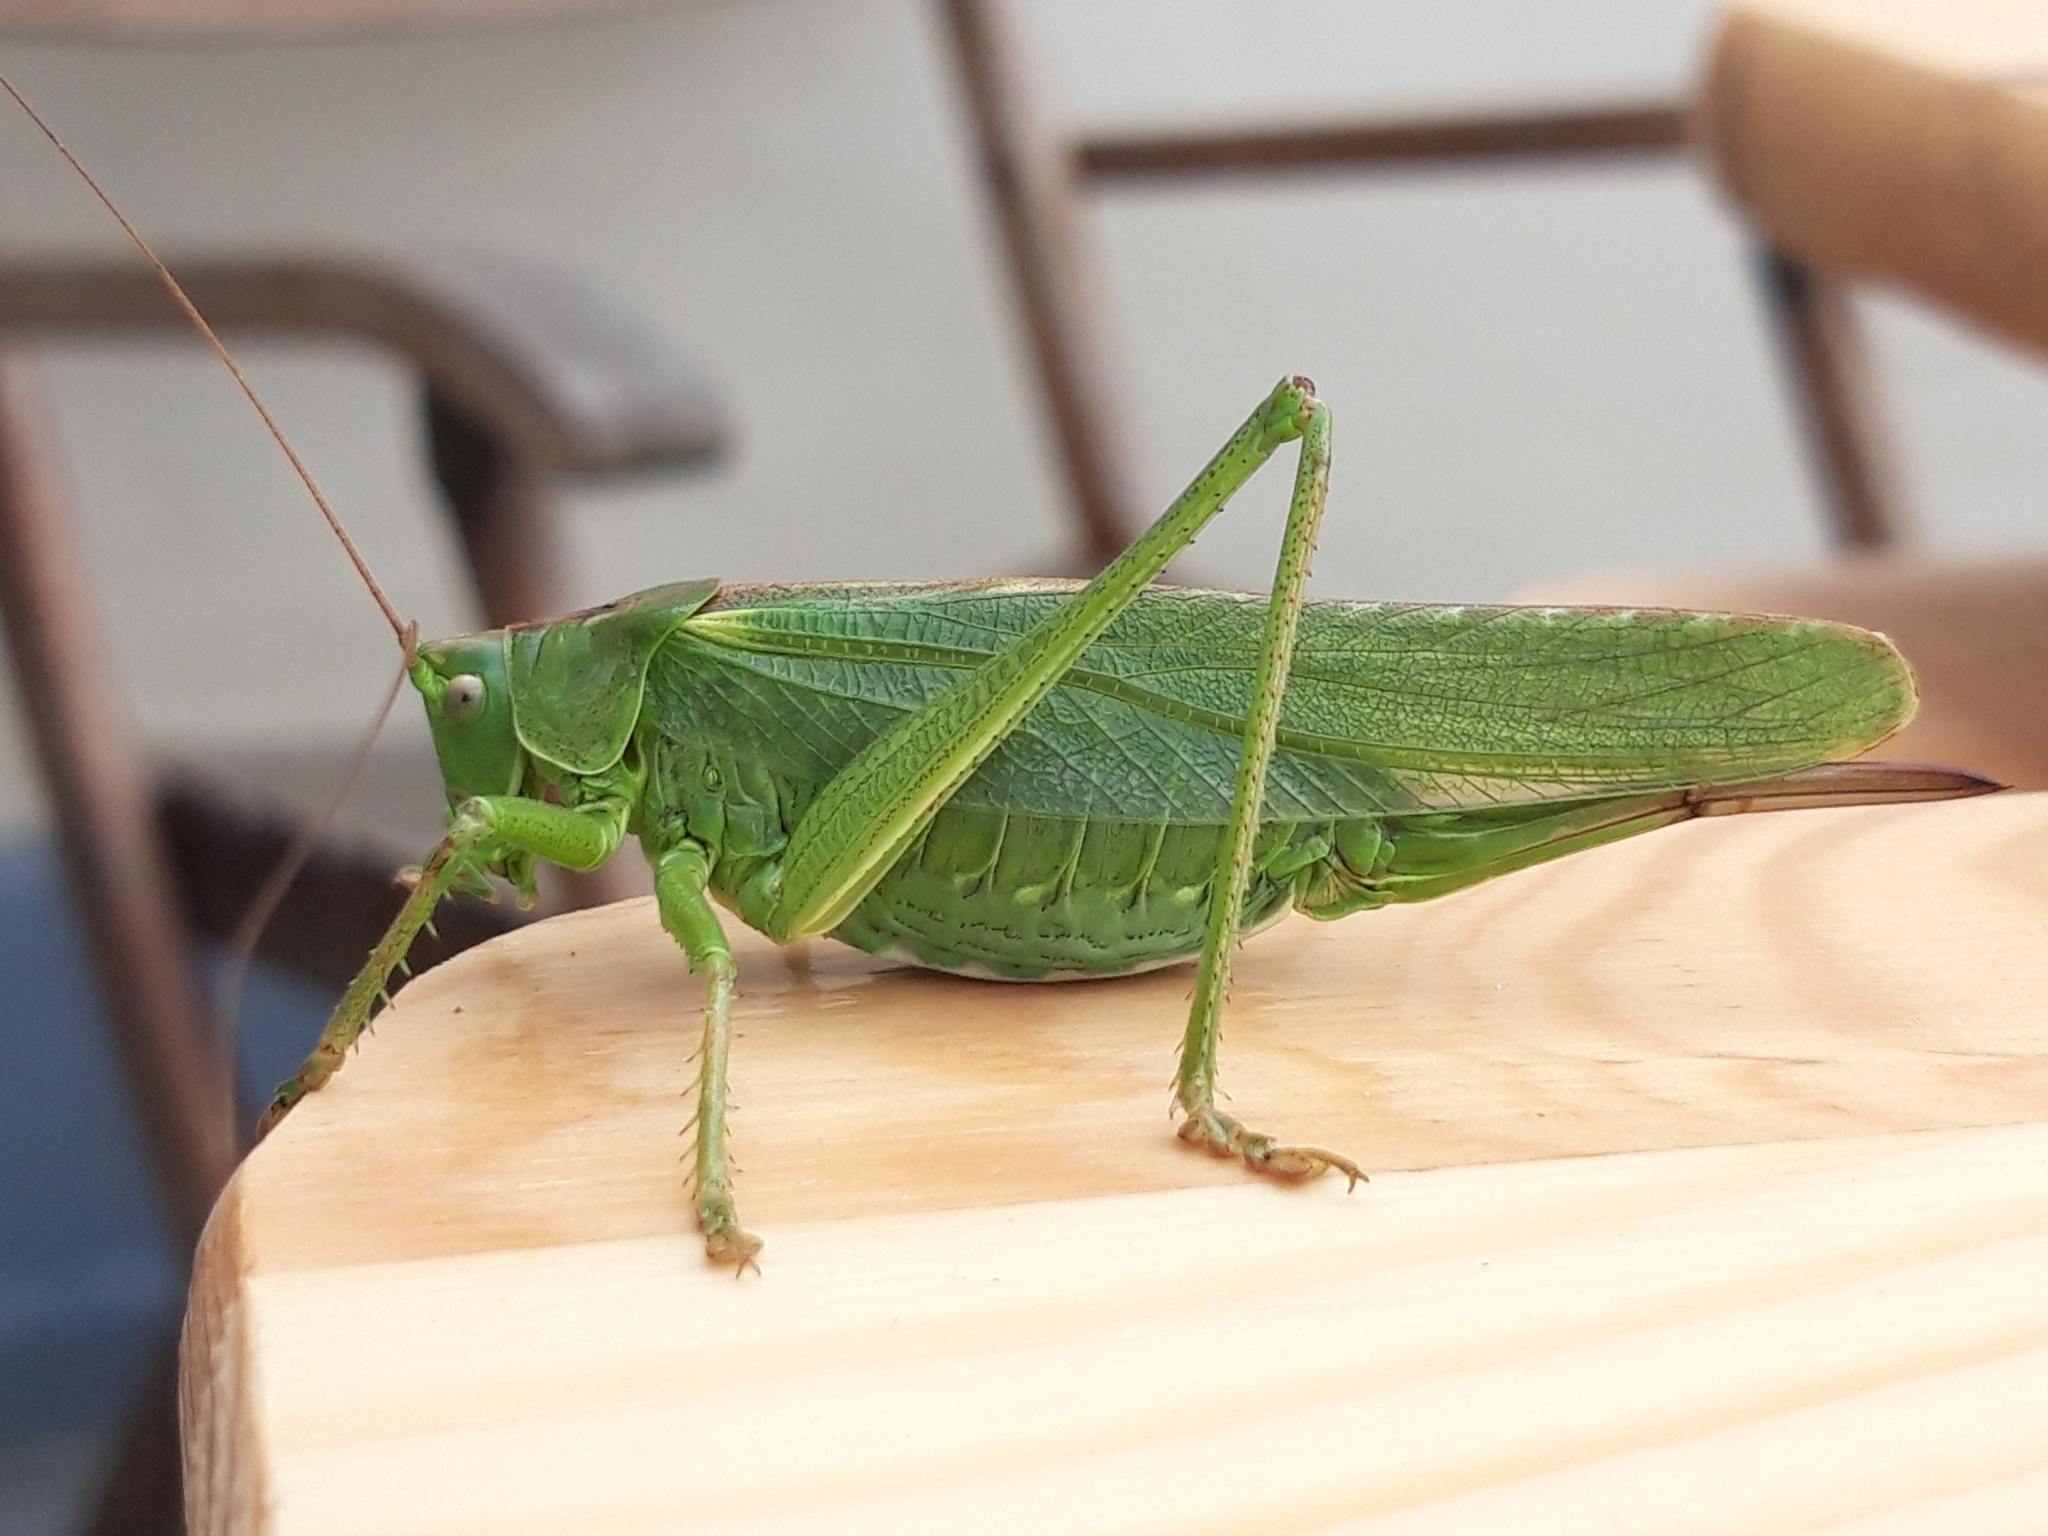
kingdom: Animalia
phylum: Arthropoda
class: Insecta
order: Orthoptera
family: Tettigoniidae
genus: Tettigonia
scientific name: Tettigonia viridissima
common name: Great green bush-cricket
